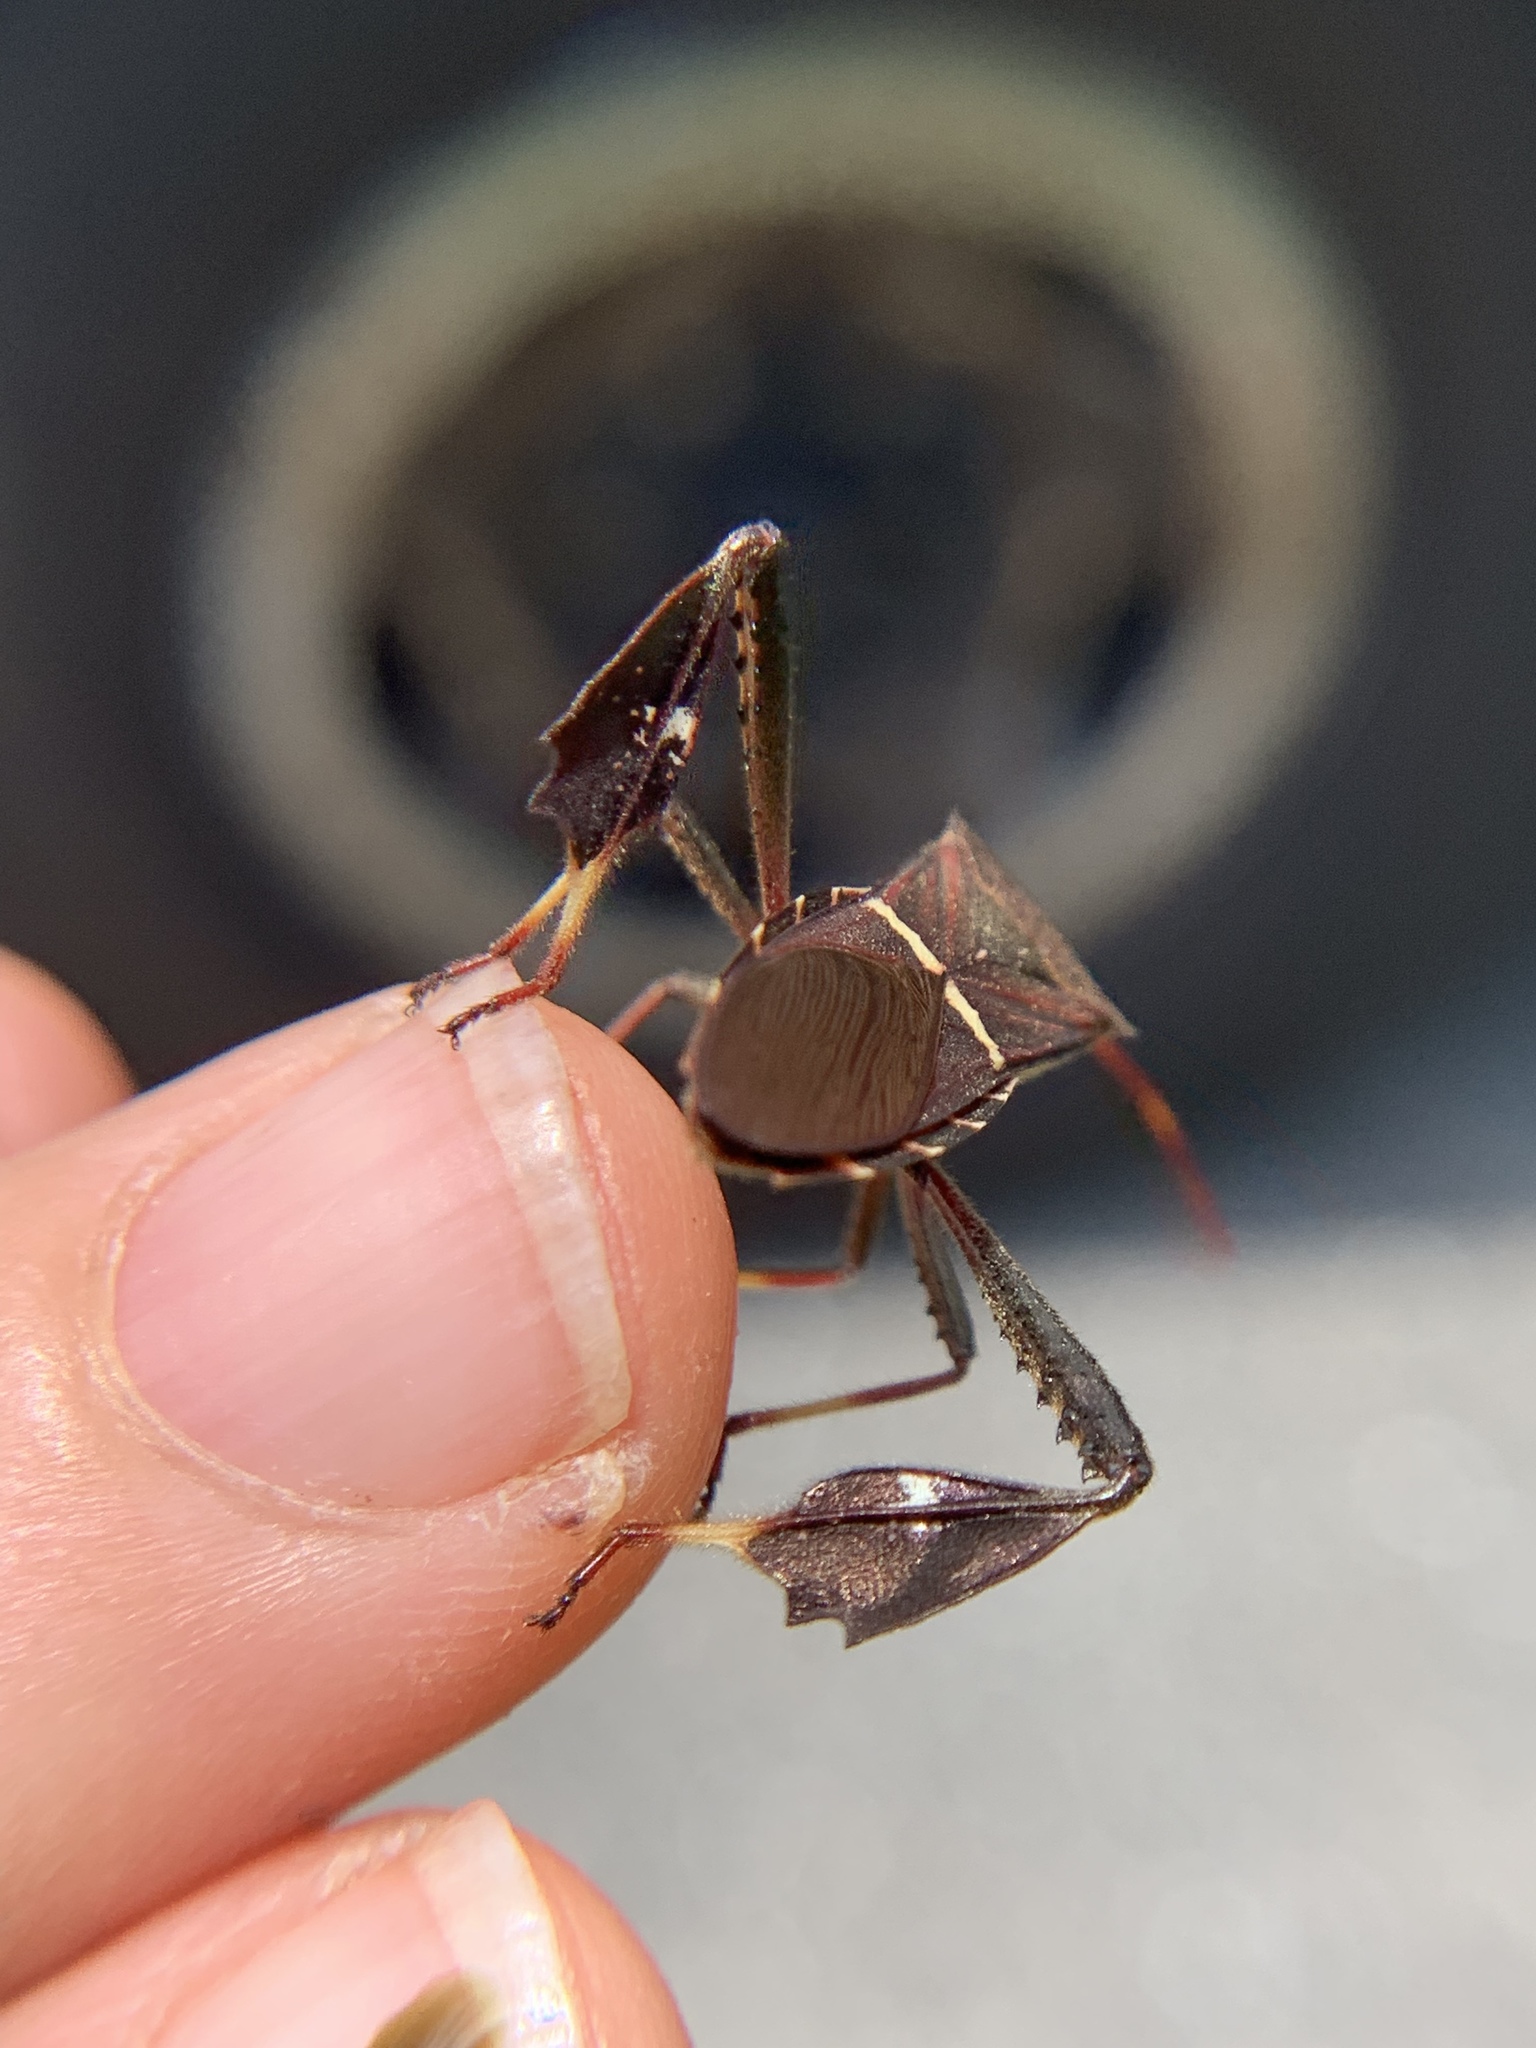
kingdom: Animalia
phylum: Arthropoda
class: Insecta
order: Hemiptera
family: Coreidae
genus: Leptoglossus
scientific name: Leptoglossus phyllopus
